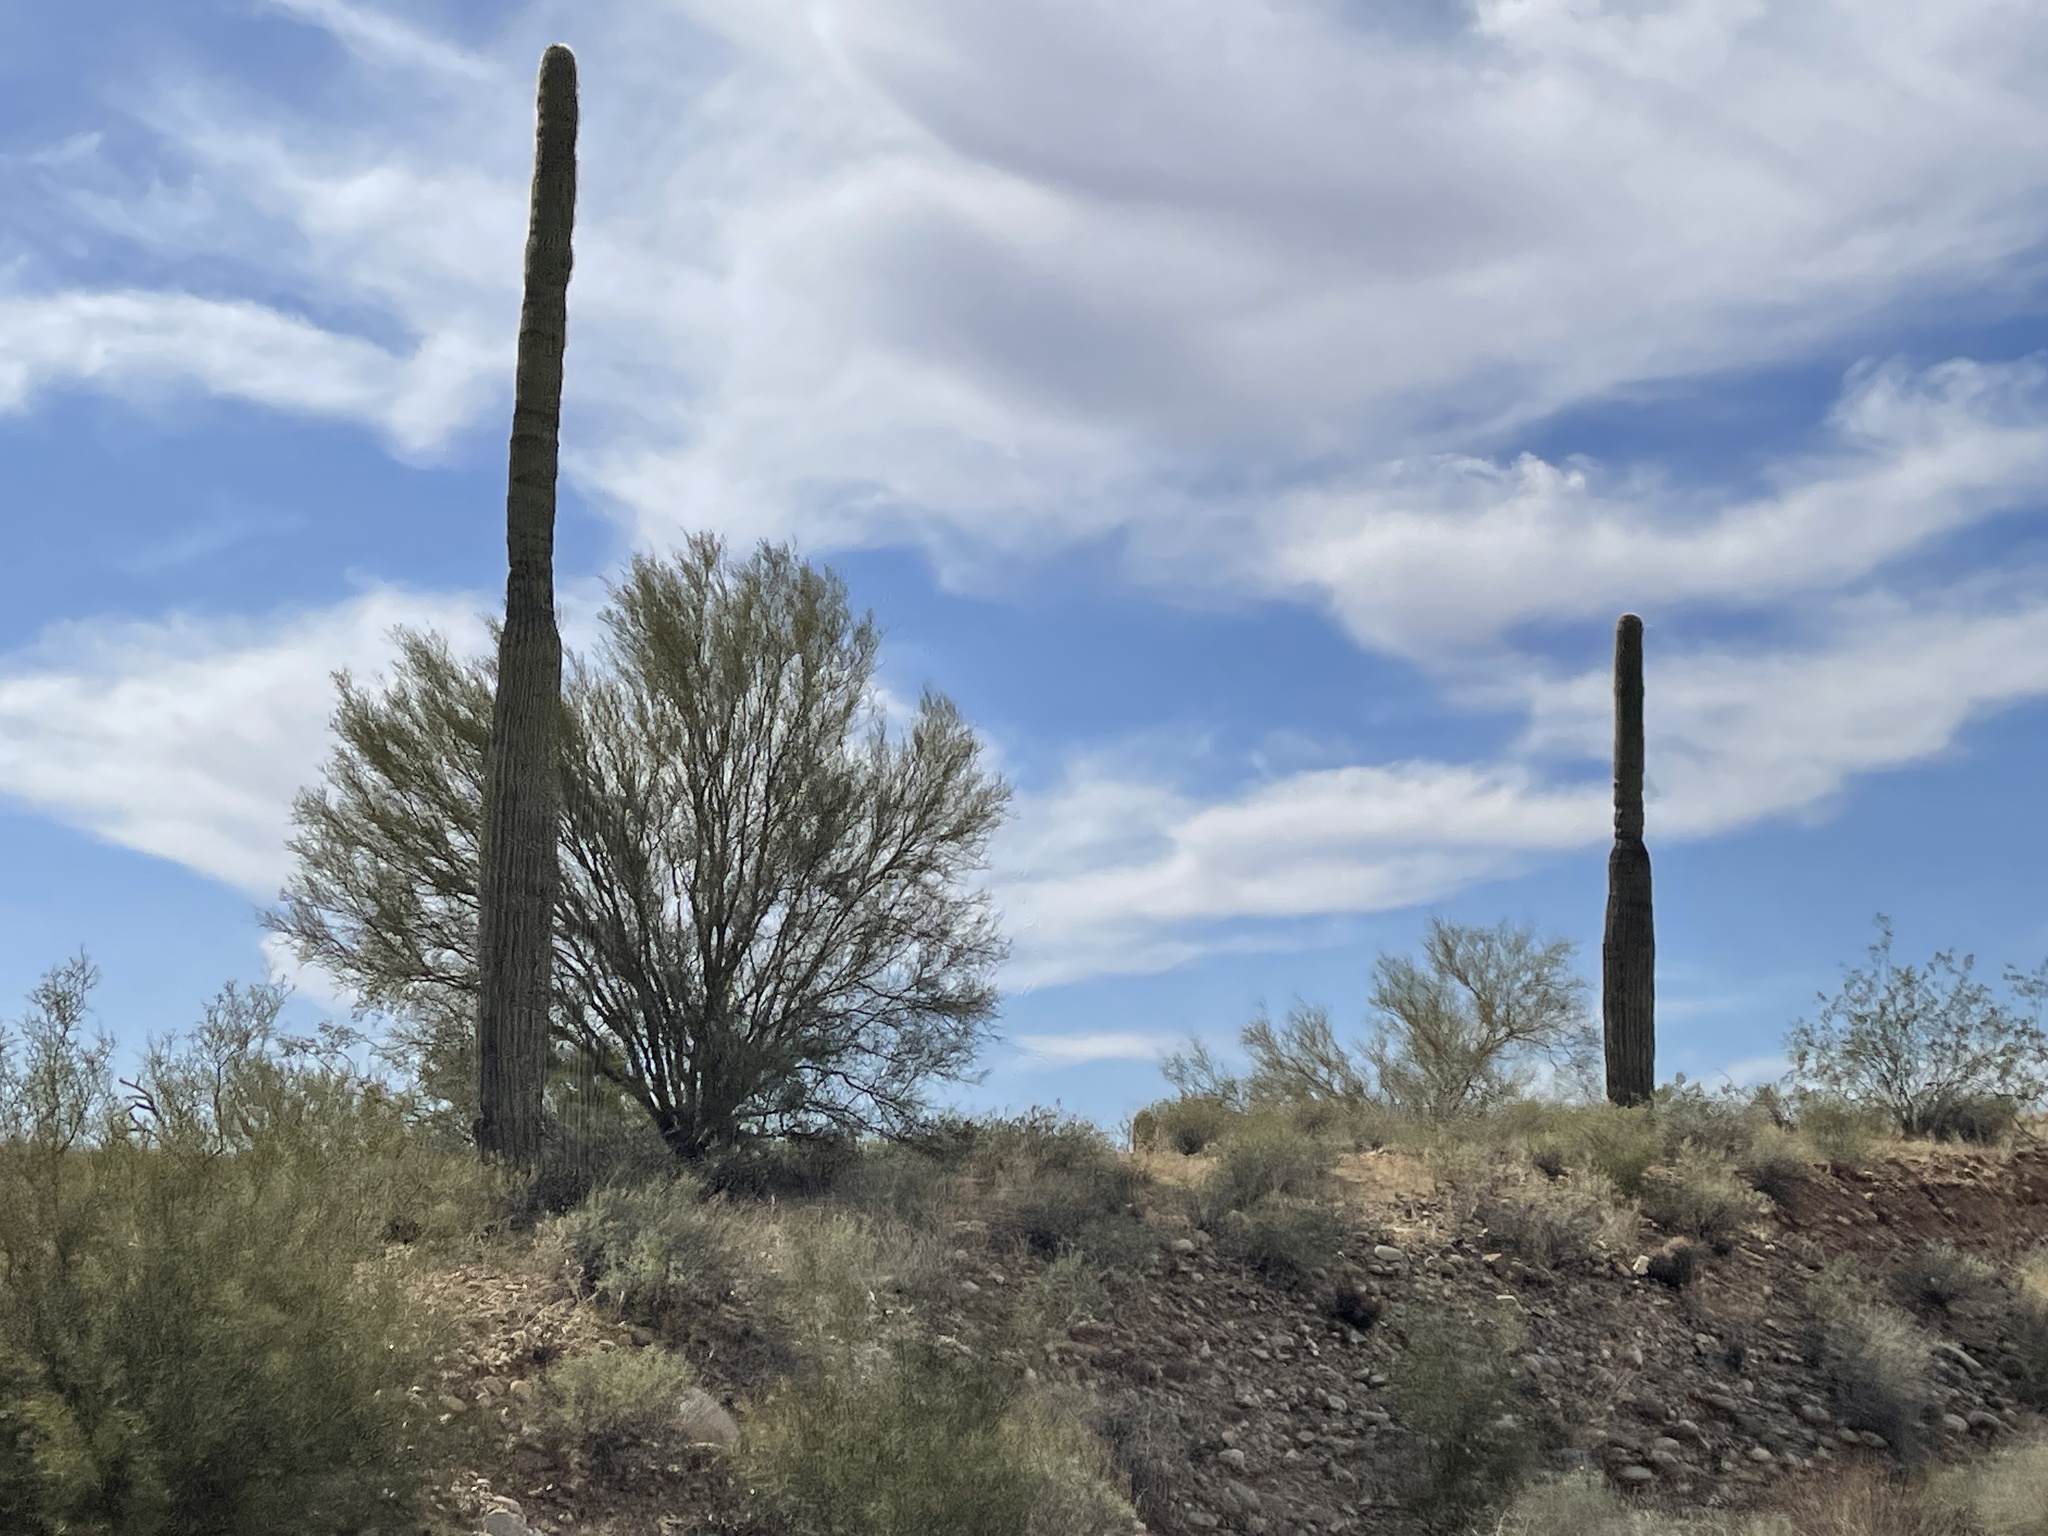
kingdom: Plantae
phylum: Tracheophyta
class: Magnoliopsida
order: Caryophyllales
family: Cactaceae
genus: Carnegiea
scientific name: Carnegiea gigantea
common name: Saguaro
